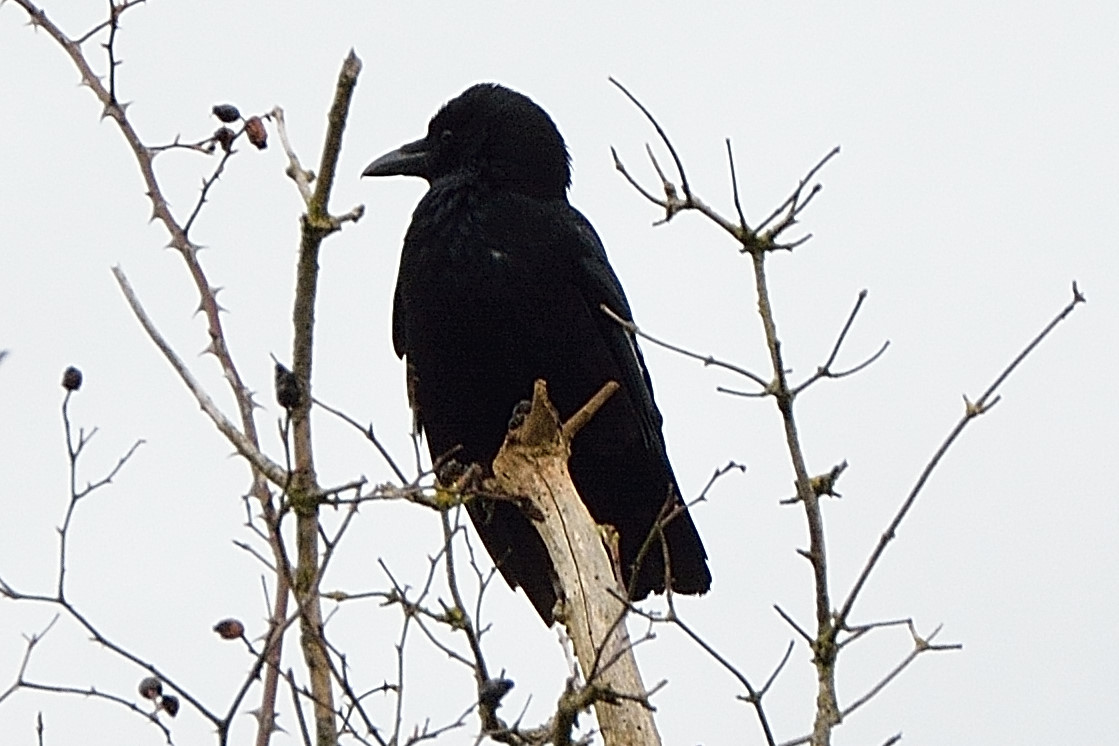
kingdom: Animalia
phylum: Chordata
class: Aves
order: Passeriformes
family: Corvidae
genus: Corvus
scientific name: Corvus corone
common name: Carrion crow
